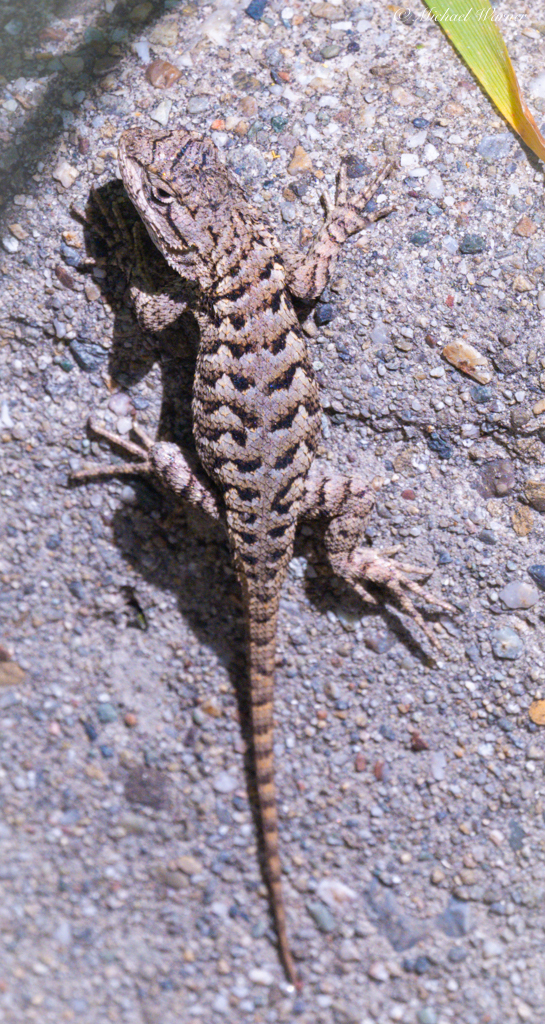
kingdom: Animalia
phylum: Chordata
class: Squamata
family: Phrynosomatidae
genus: Sceloporus
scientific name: Sceloporus occidentalis
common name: Western fence lizard
